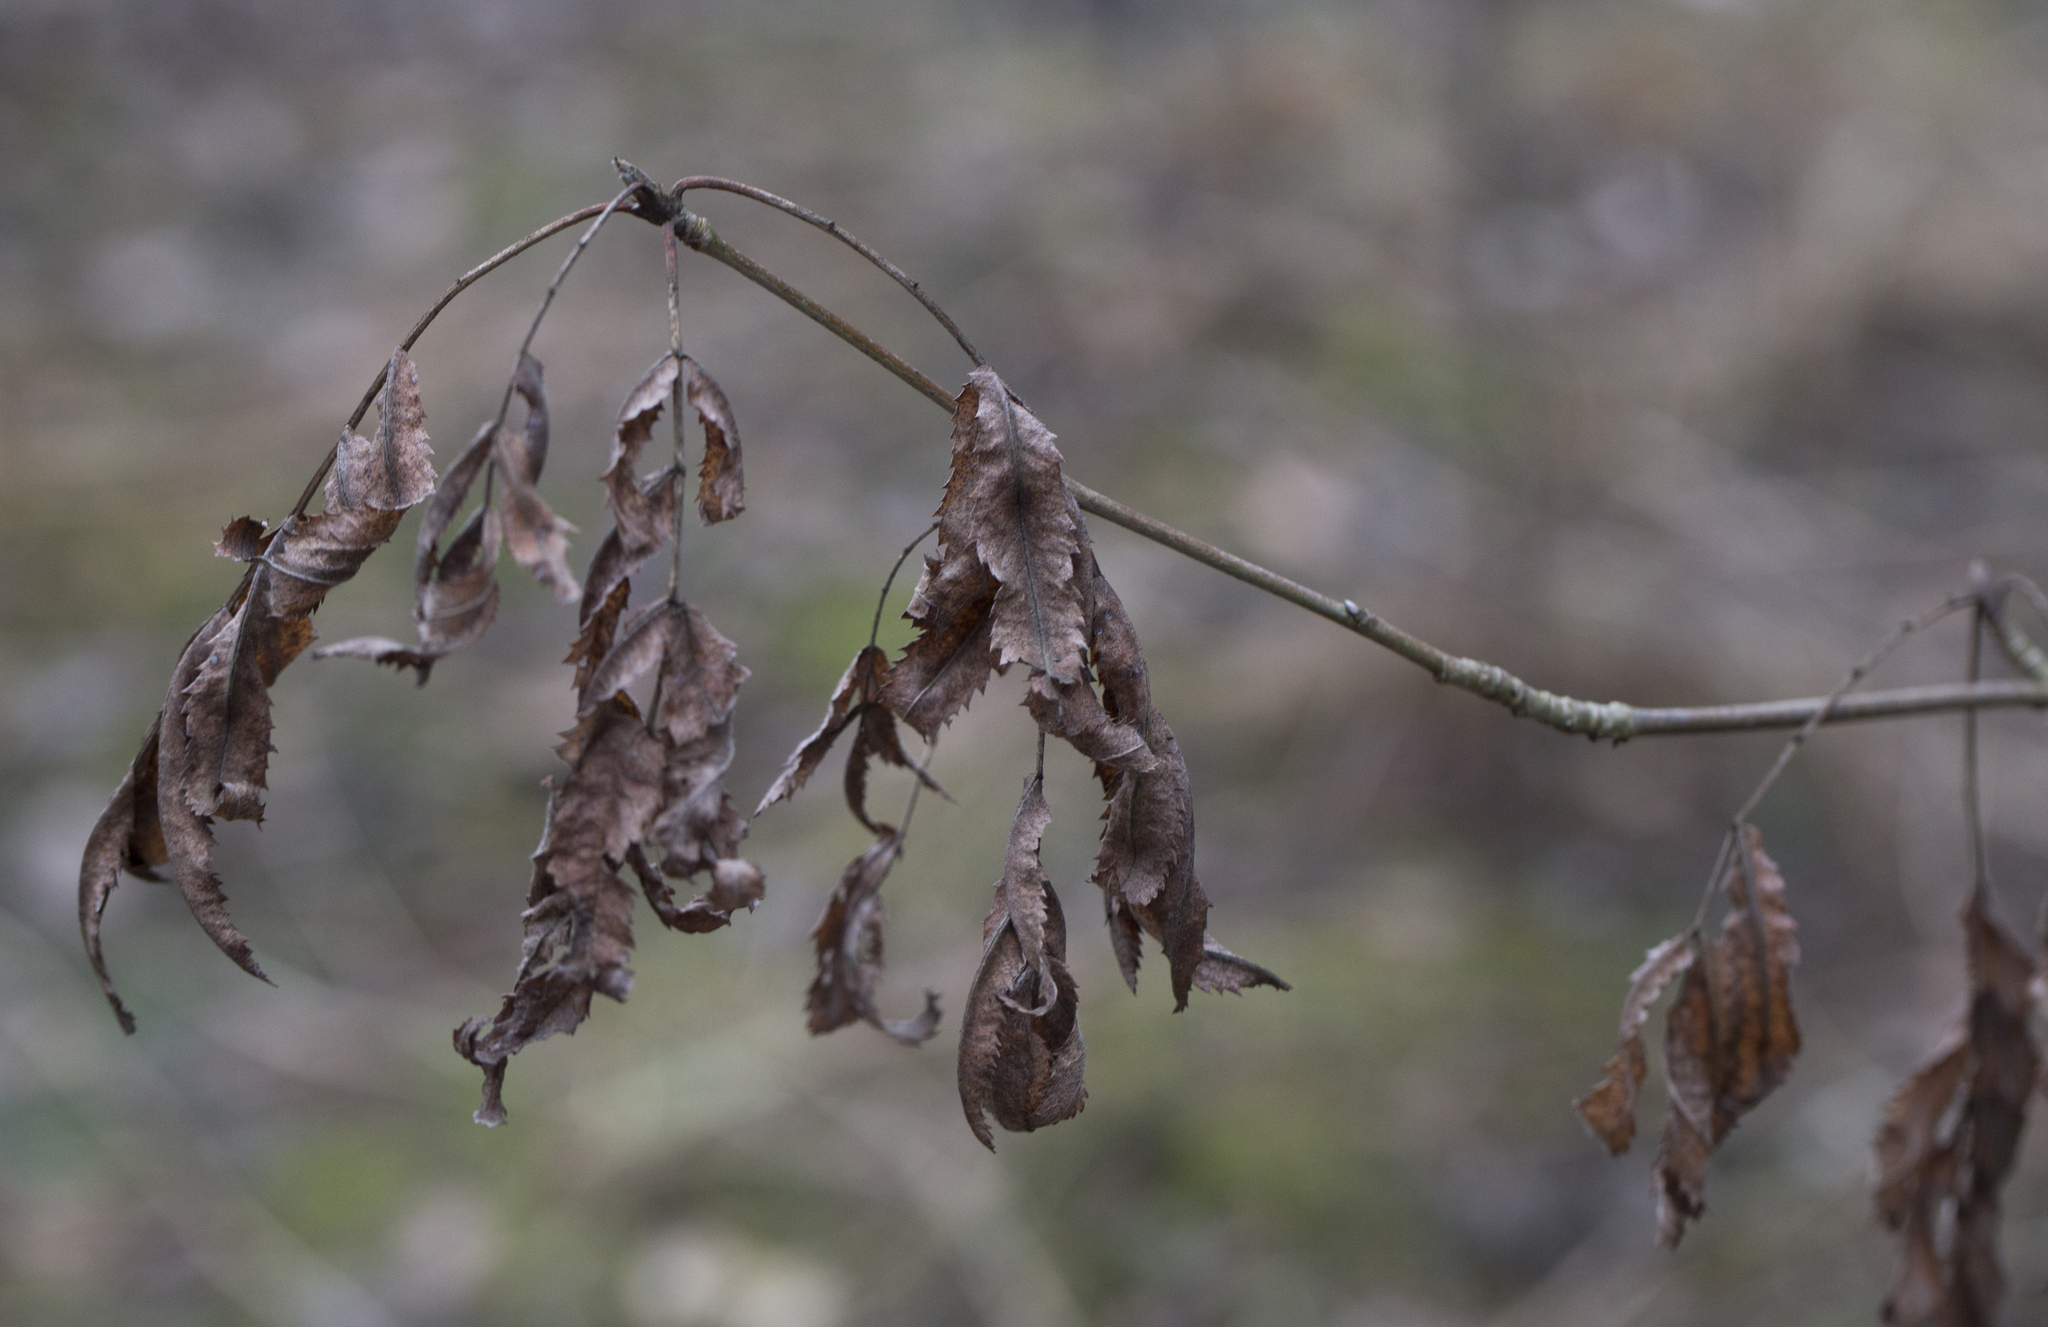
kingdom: Plantae
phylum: Tracheophyta
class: Magnoliopsida
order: Rosales
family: Rosaceae
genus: Sorbus
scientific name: Sorbus aucuparia
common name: Rowan
